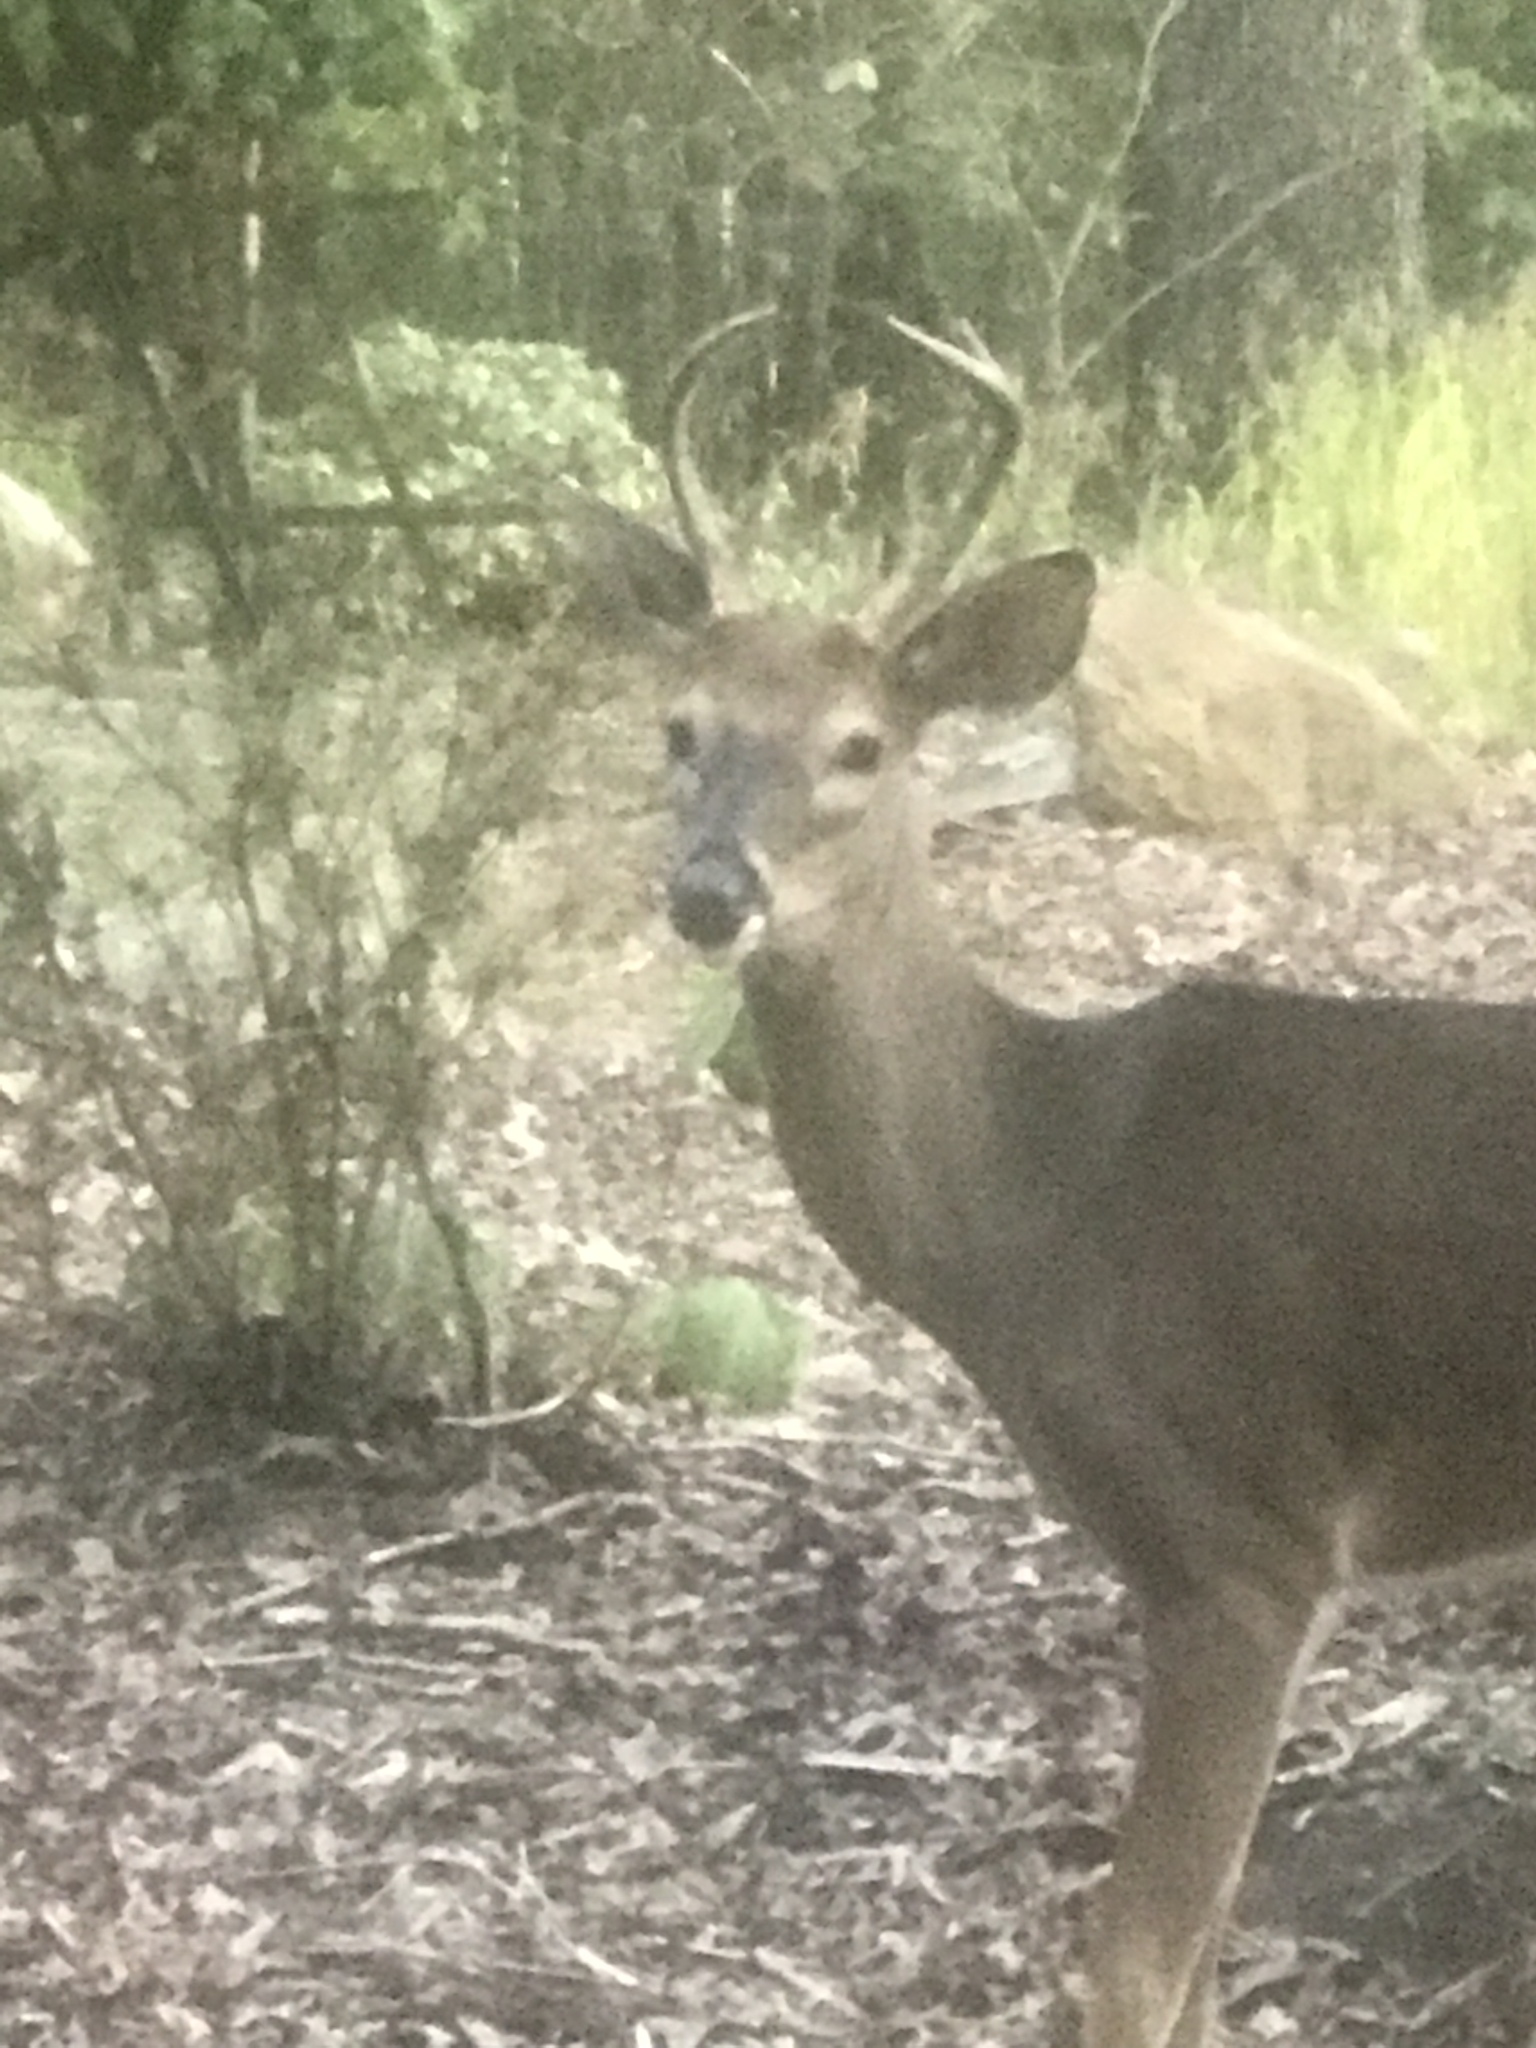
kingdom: Animalia
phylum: Chordata
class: Mammalia
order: Artiodactyla
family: Cervidae
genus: Odocoileus
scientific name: Odocoileus virginianus
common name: White-tailed deer
